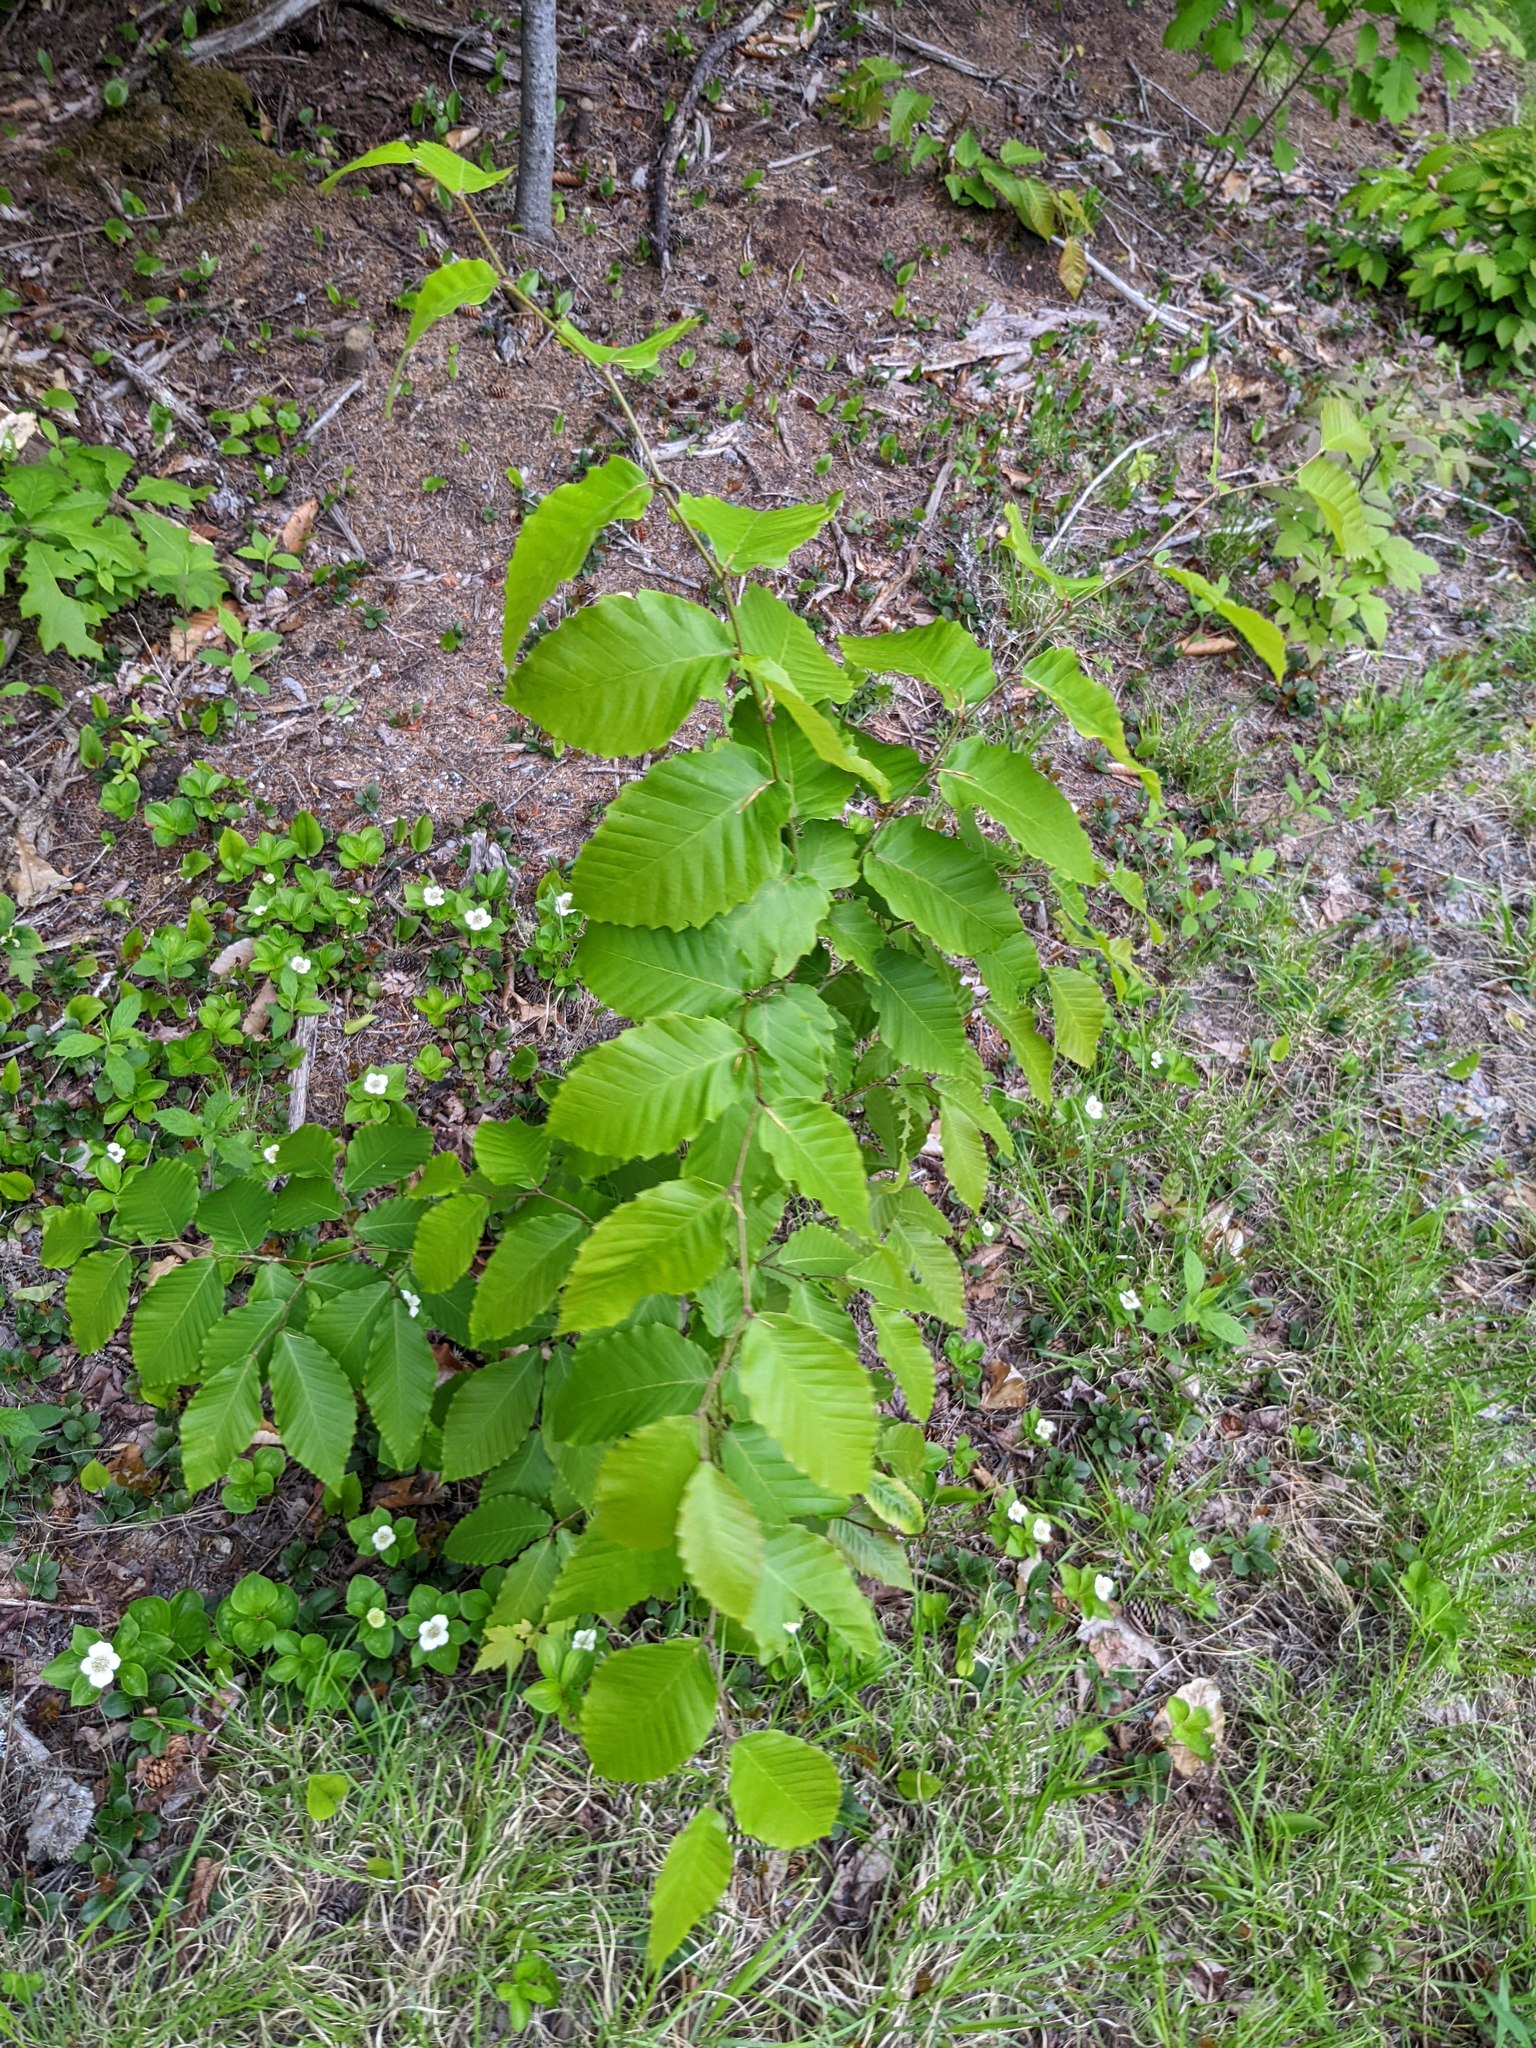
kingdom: Plantae
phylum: Tracheophyta
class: Magnoliopsida
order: Fagales
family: Fagaceae
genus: Fagus
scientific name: Fagus grandifolia
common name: American beech
